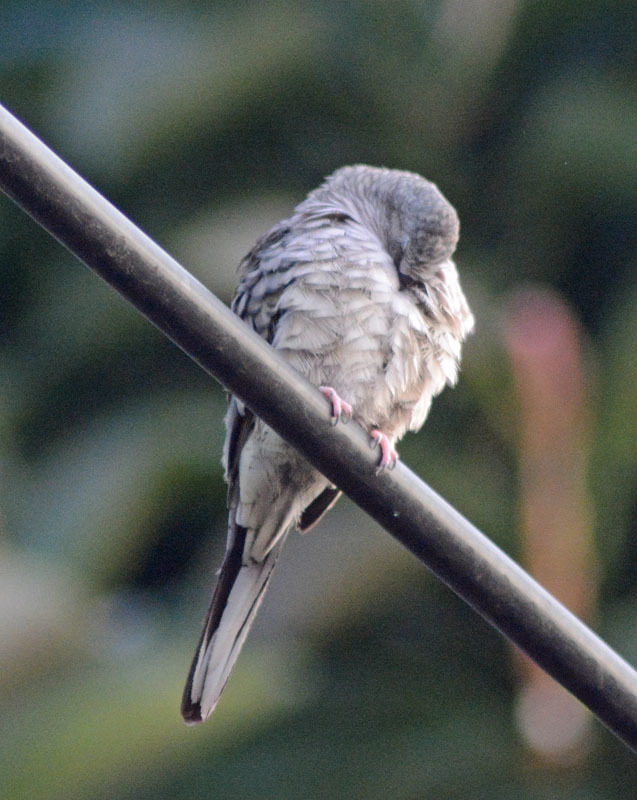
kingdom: Animalia
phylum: Chordata
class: Aves
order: Columbiformes
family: Columbidae
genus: Columbina
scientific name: Columbina inca
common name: Inca dove
